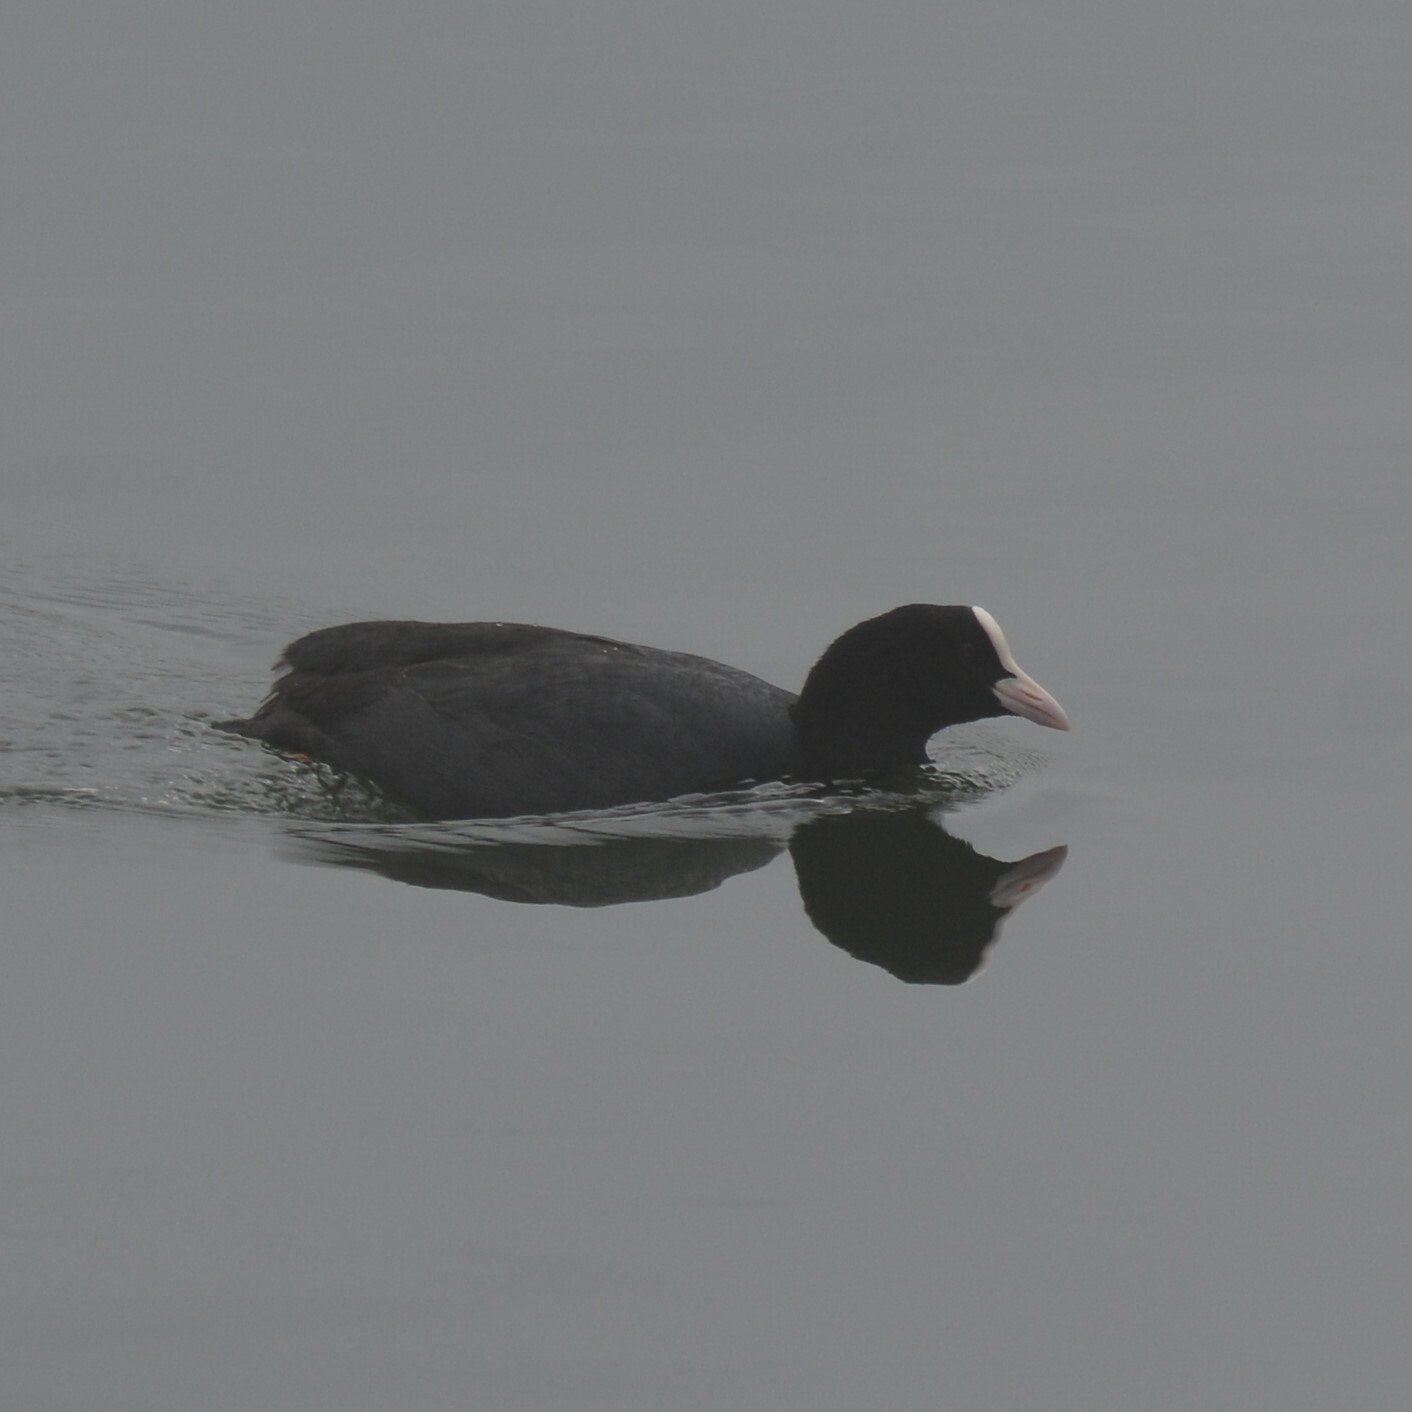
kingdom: Animalia
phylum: Chordata
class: Aves
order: Gruiformes
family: Rallidae
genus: Fulica
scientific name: Fulica atra
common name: Eurasian coot
